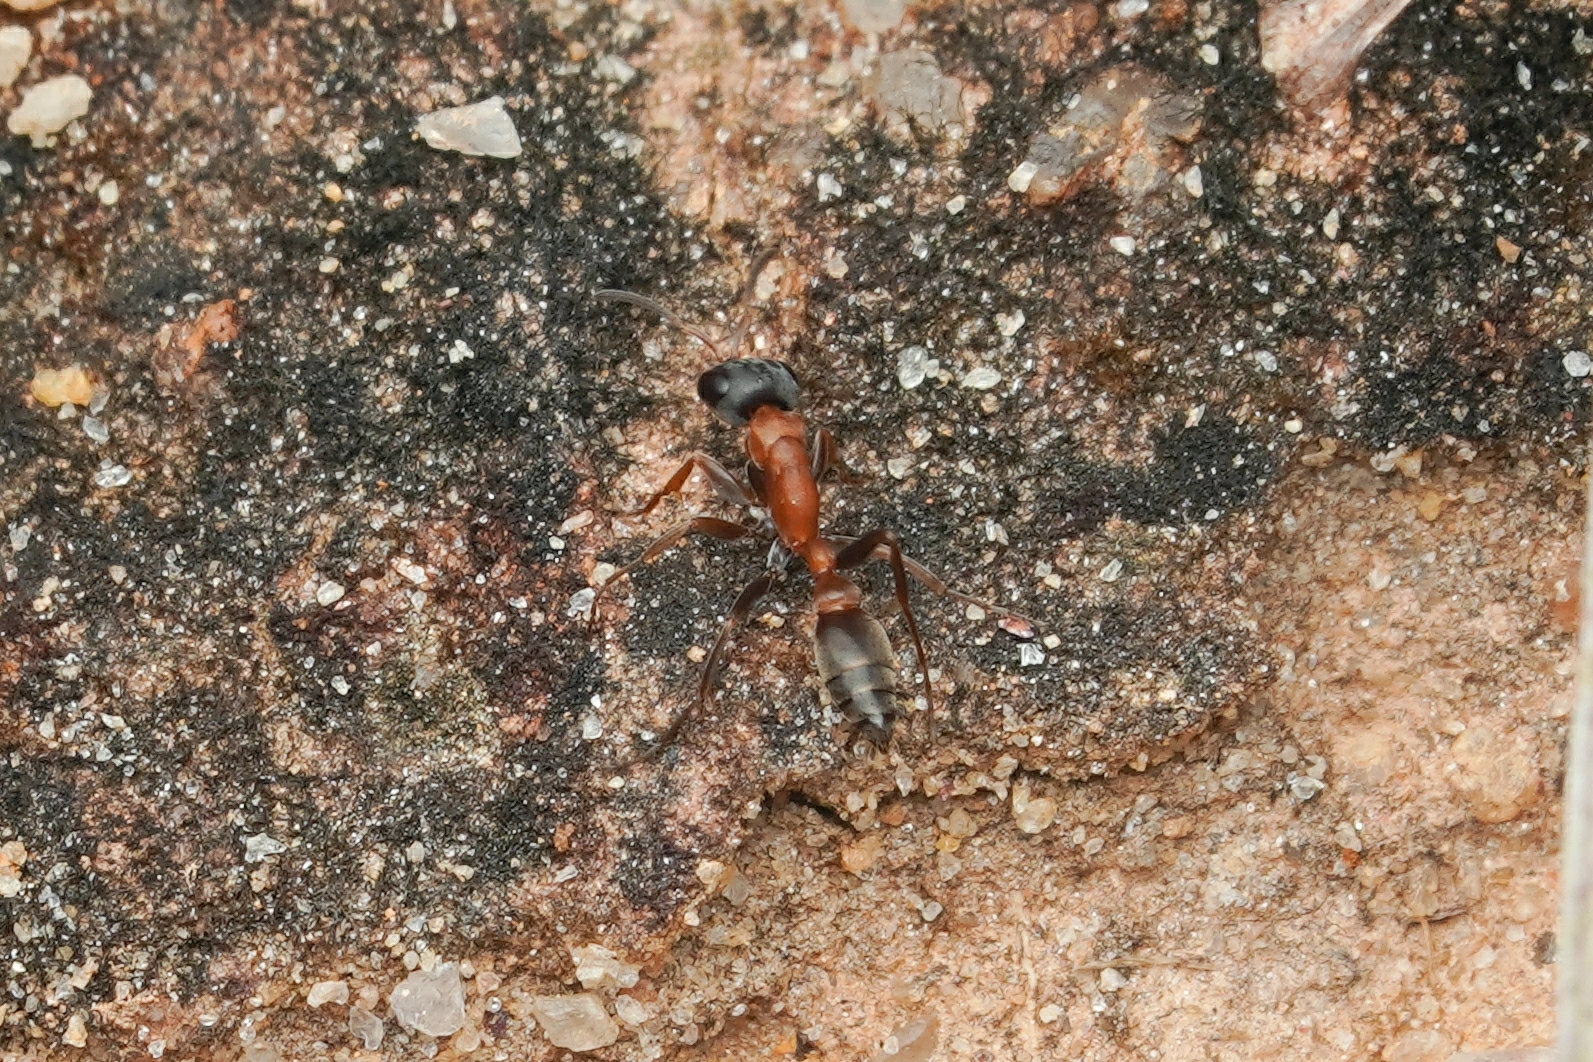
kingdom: Animalia
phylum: Arthropoda
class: Insecta
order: Hymenoptera
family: Formicidae
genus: Pseudomyrmex
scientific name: Pseudomyrmex termitarius
